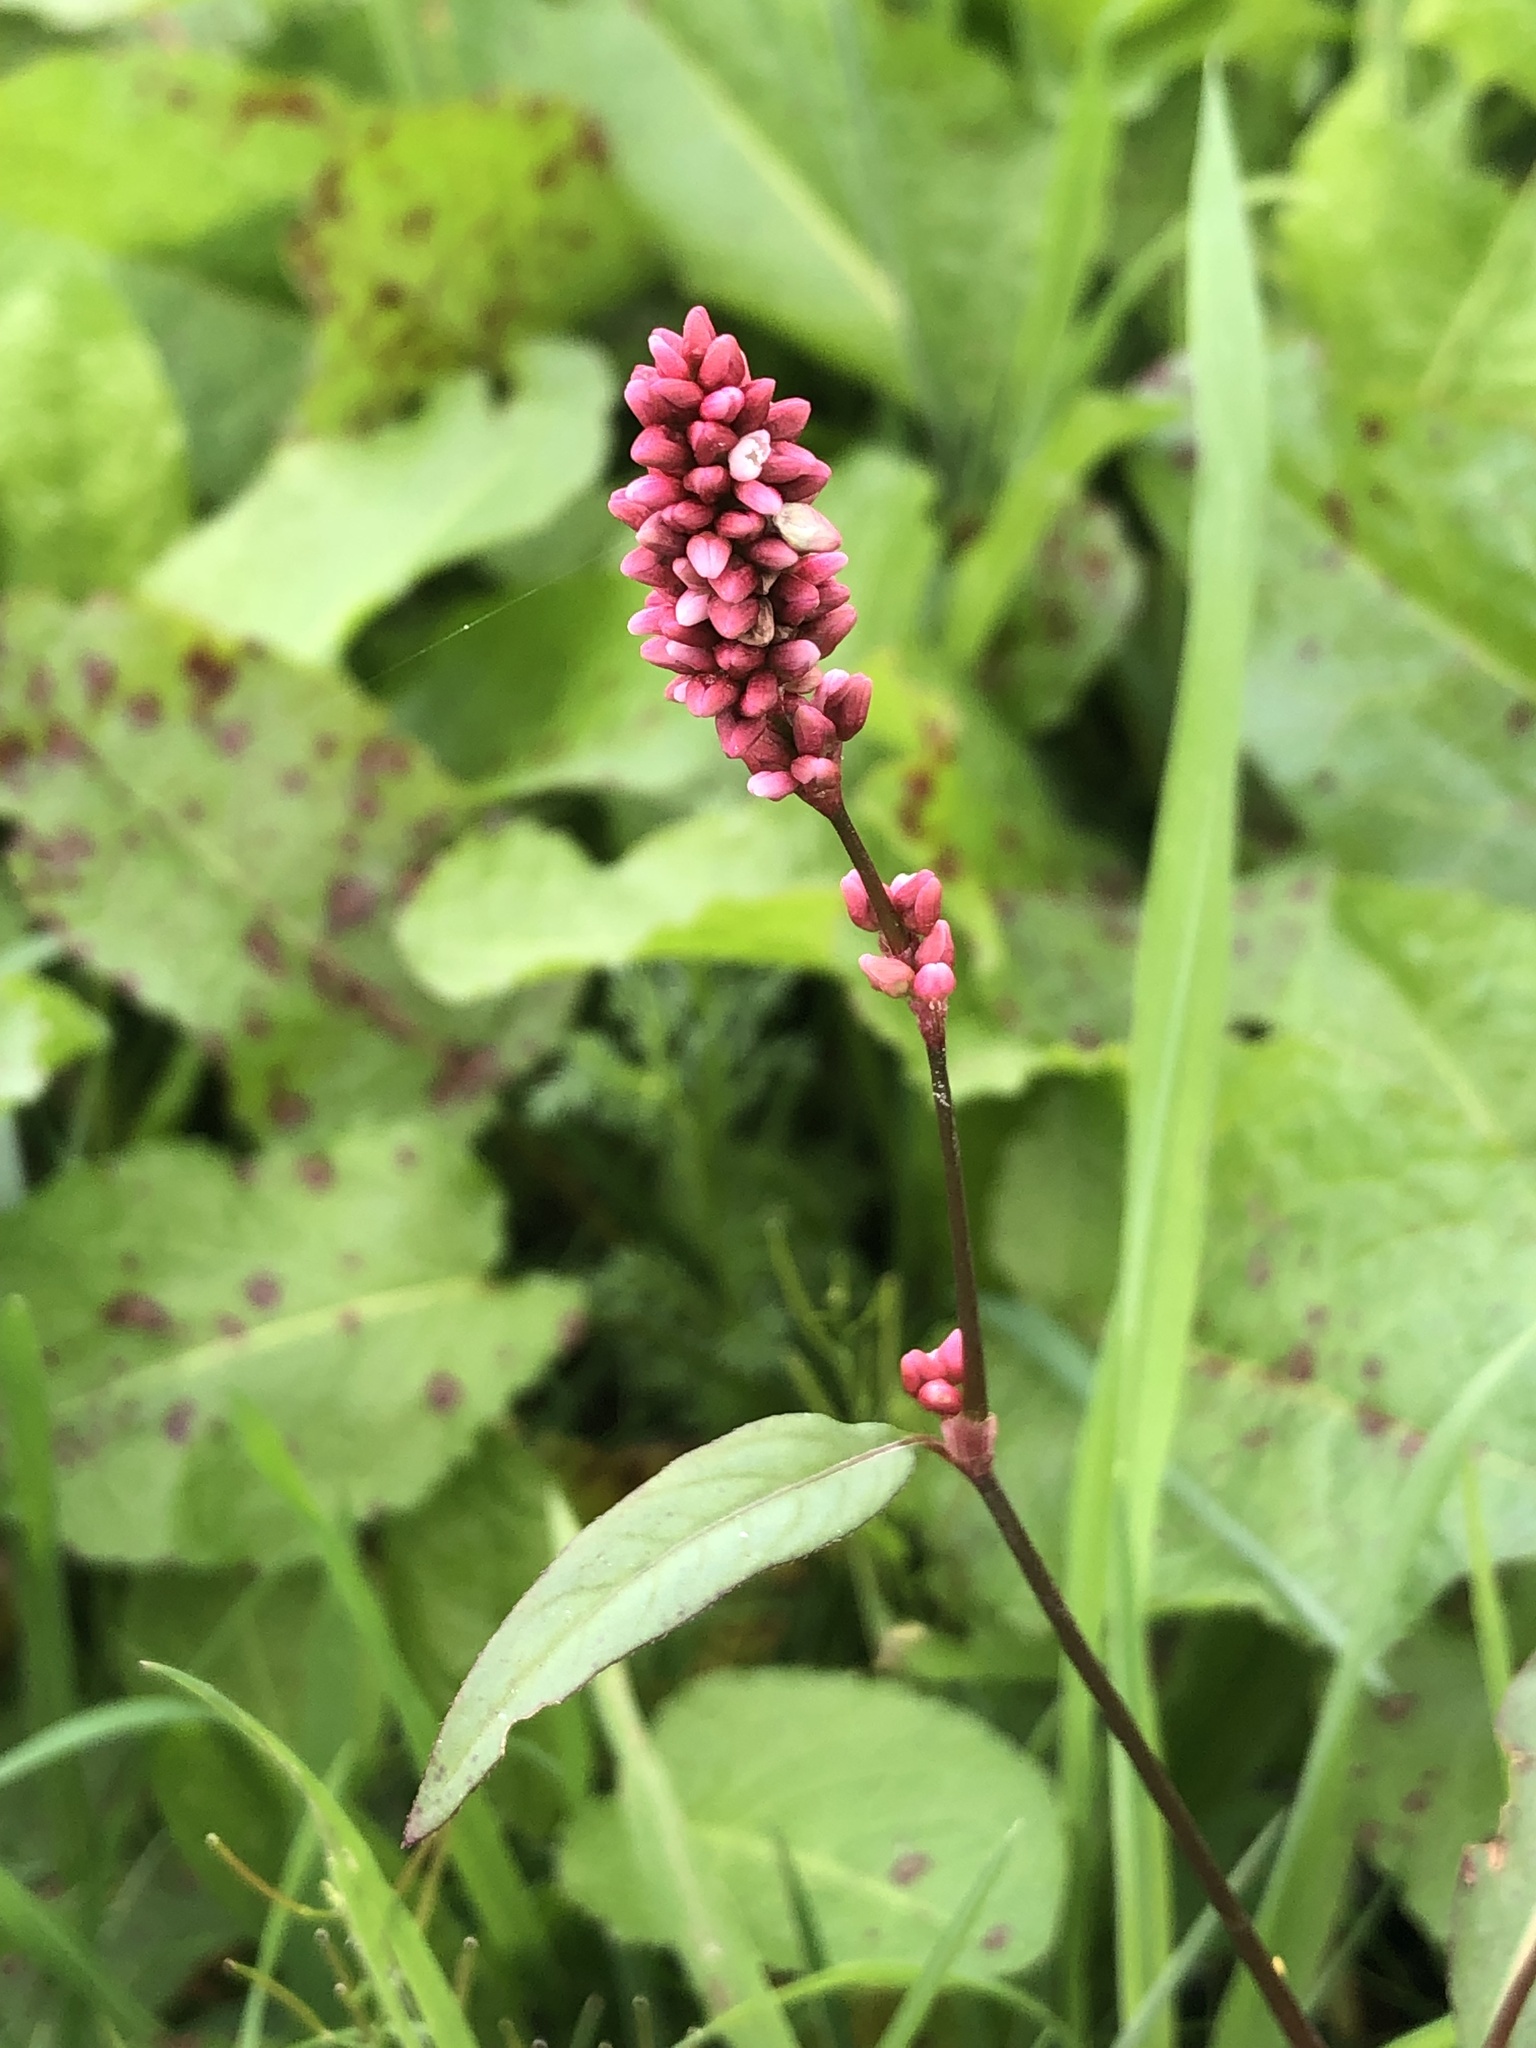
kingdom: Plantae
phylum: Tracheophyta
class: Magnoliopsida
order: Caryophyllales
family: Polygonaceae
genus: Persicaria
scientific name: Persicaria maculosa
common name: Redshank
